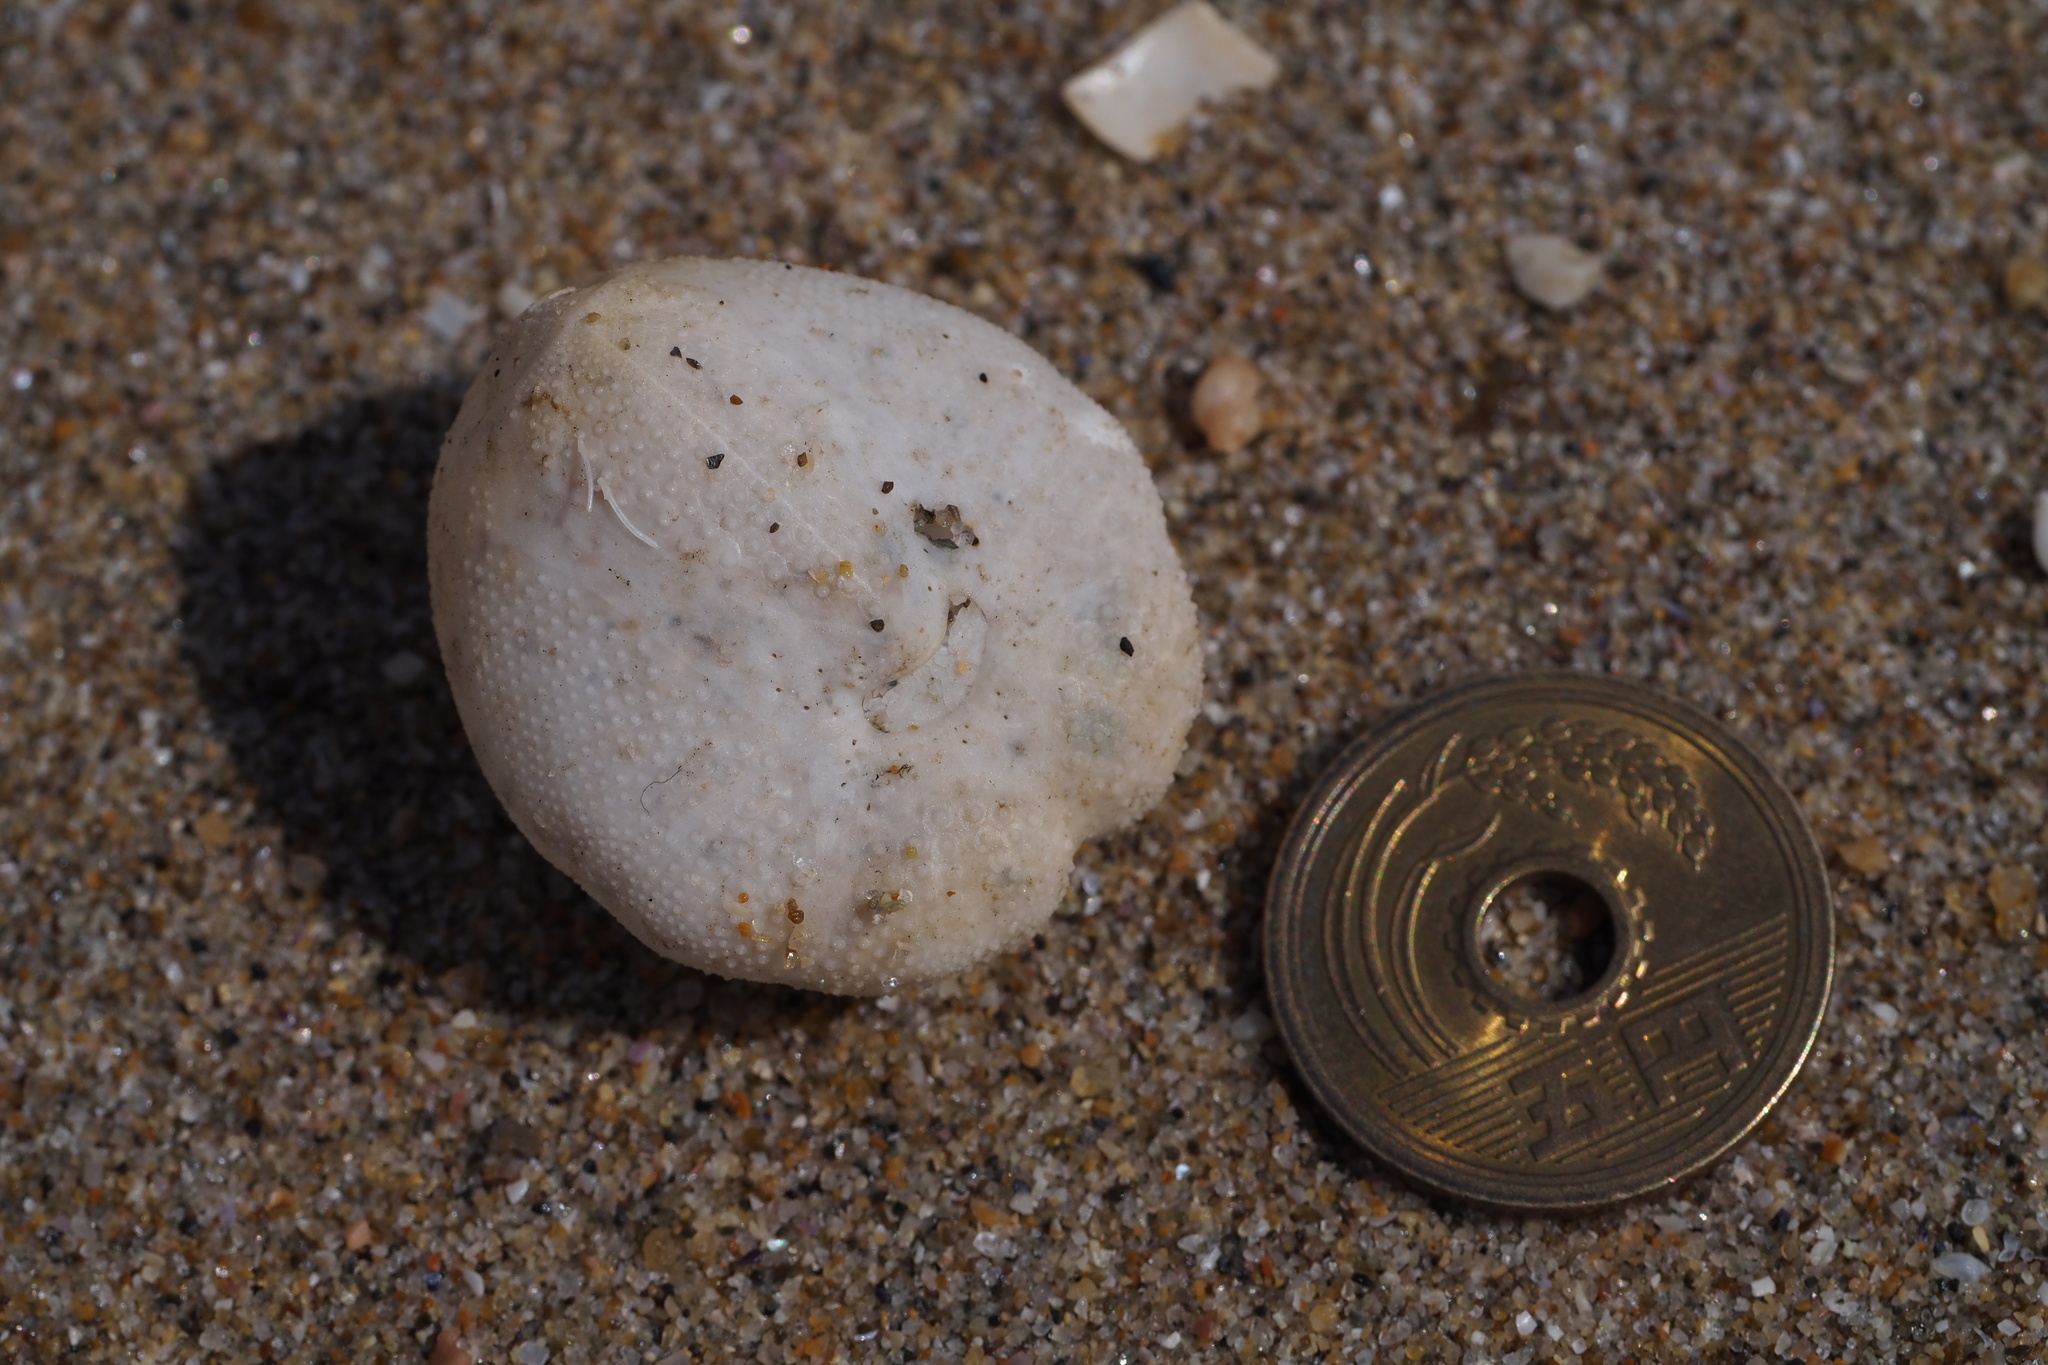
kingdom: Animalia
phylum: Echinodermata
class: Echinoidea
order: Spatangoida
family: Loveniidae
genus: Echinocardium
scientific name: Echinocardium cordatum
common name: Heart-urchin
